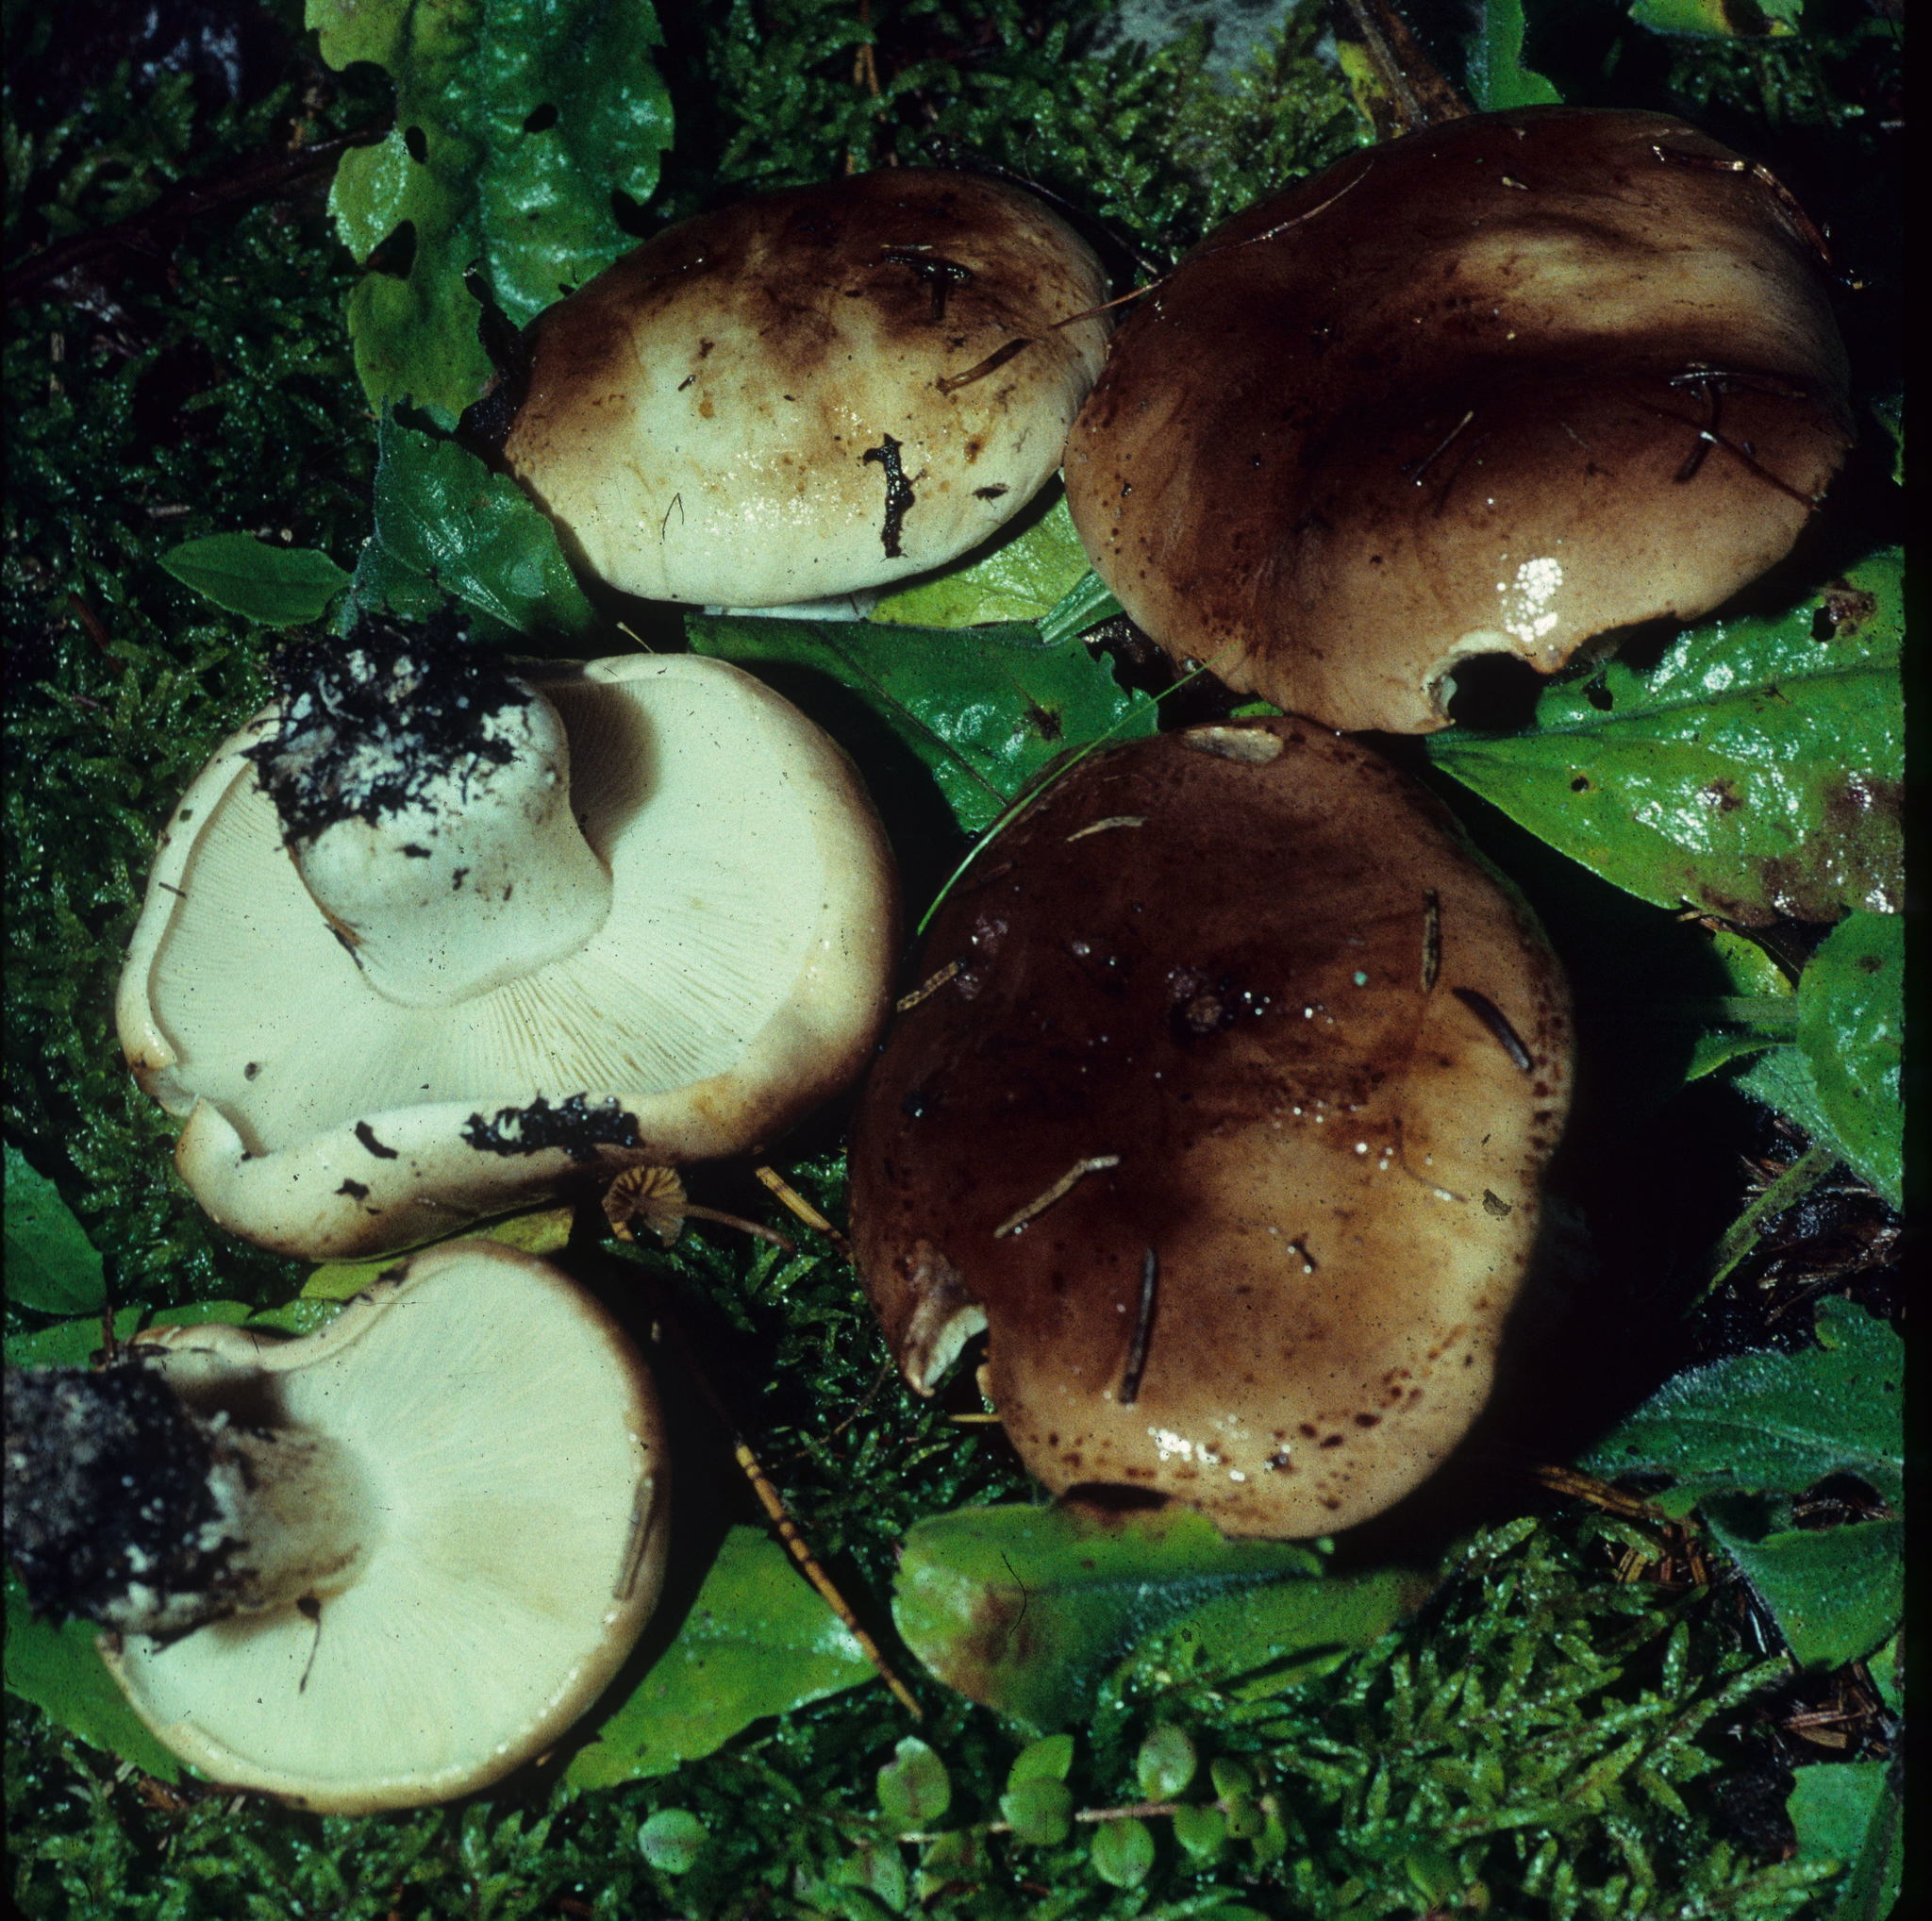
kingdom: Fungi
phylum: Basidiomycota
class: Agaricomycetes
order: Agaricales
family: Tricholomataceae
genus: Tricholoma
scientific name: Tricholoma pessundatum
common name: Tacked knight
